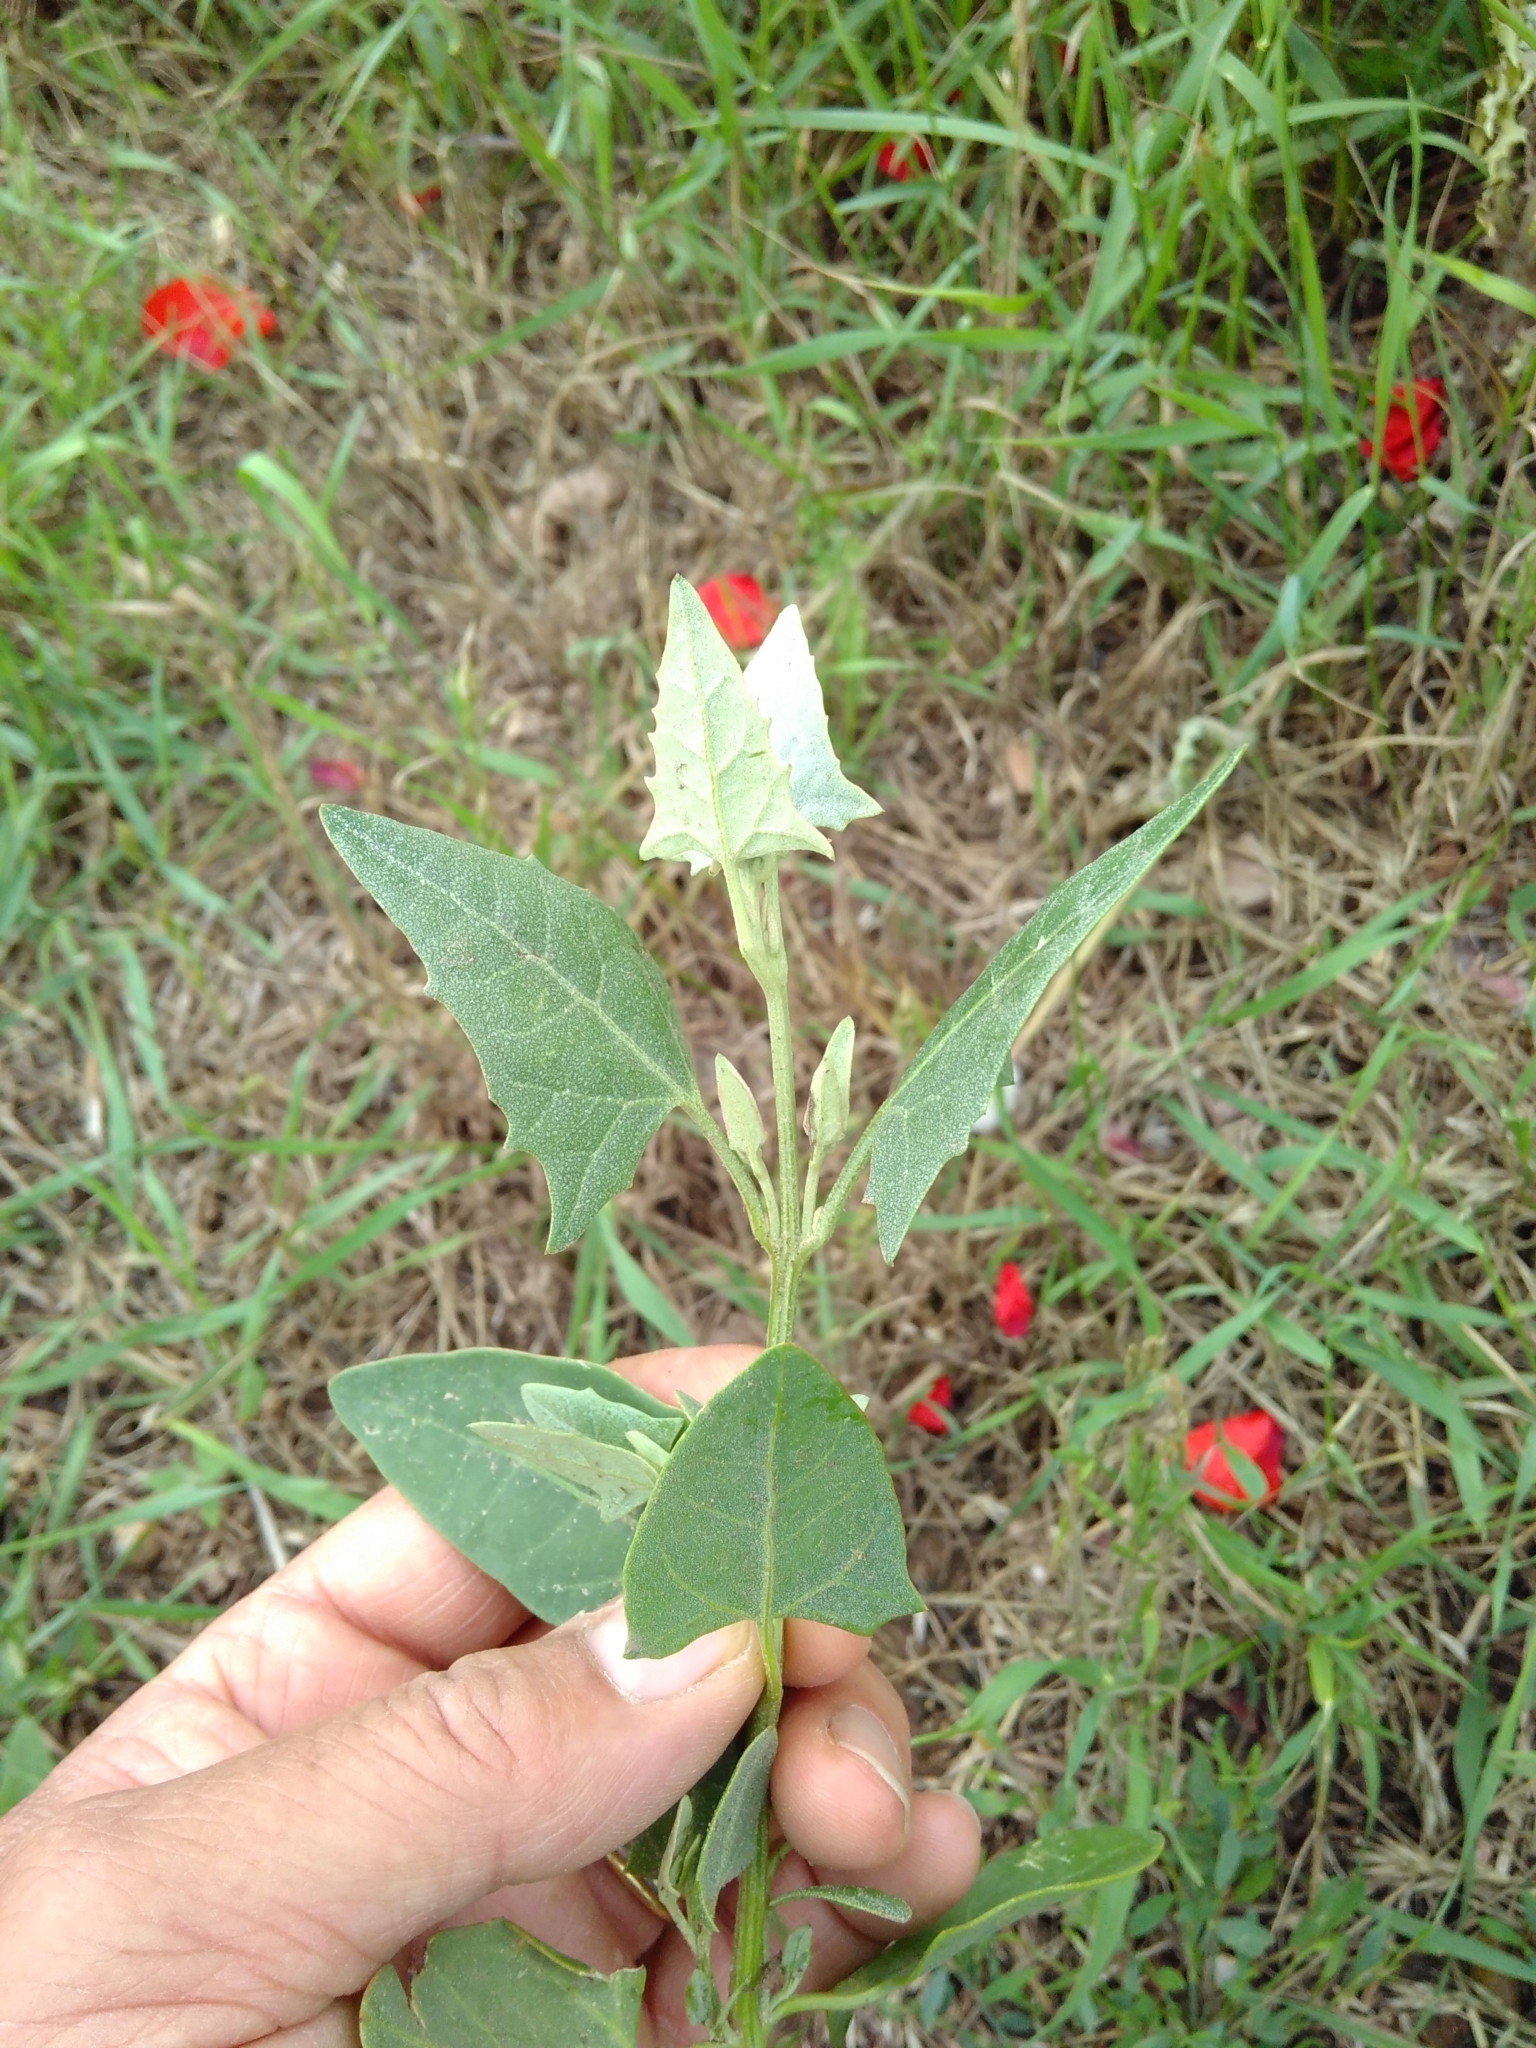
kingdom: Plantae
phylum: Tracheophyta
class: Magnoliopsida
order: Caryophyllales
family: Amaranthaceae
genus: Atriplex
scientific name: Atriplex calotheca
